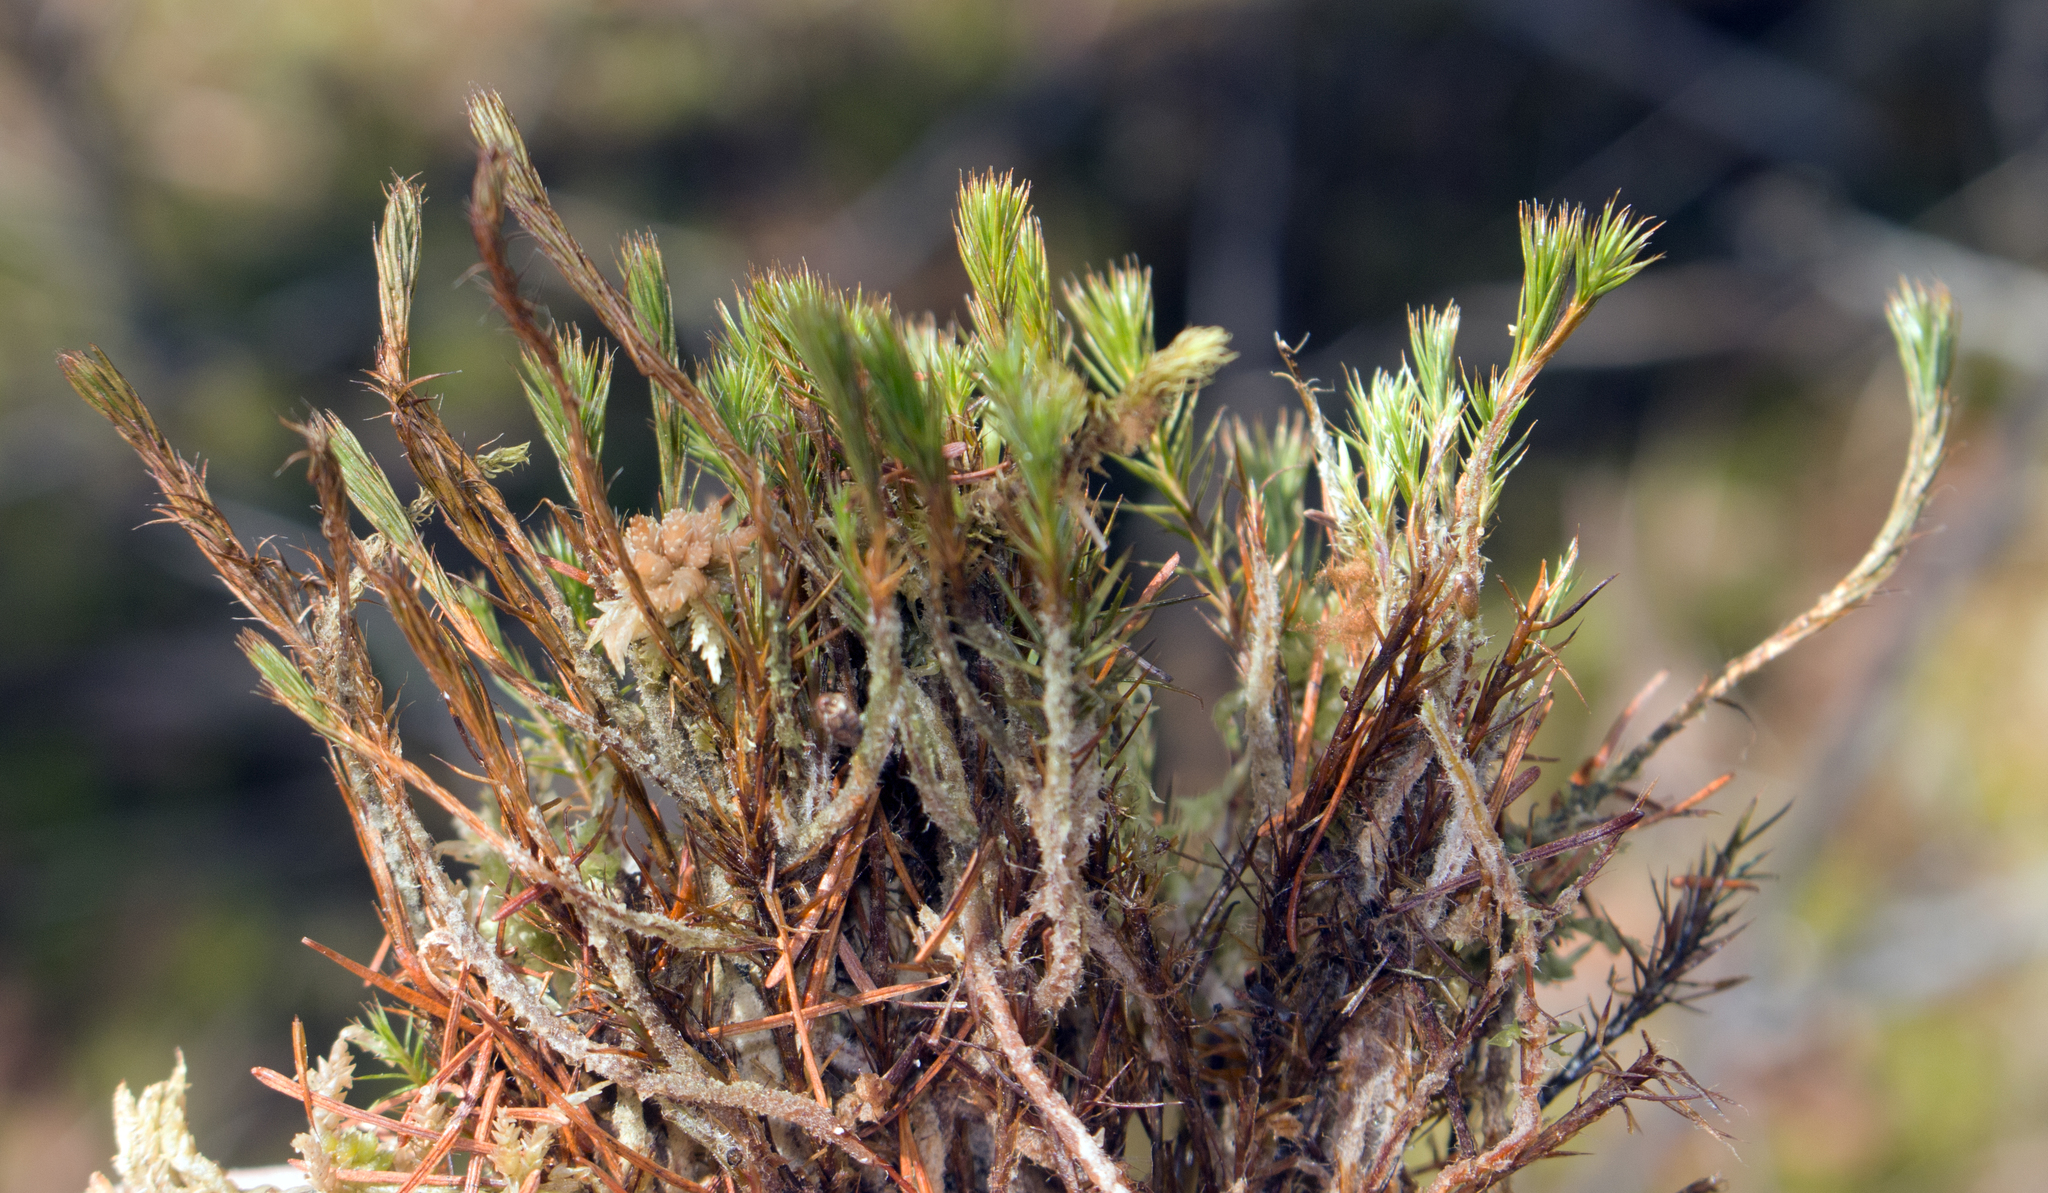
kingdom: Plantae
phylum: Bryophyta
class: Polytrichopsida
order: Polytrichales
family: Polytrichaceae
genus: Polytrichum
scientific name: Polytrichum strictum
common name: Bog haircap moss
